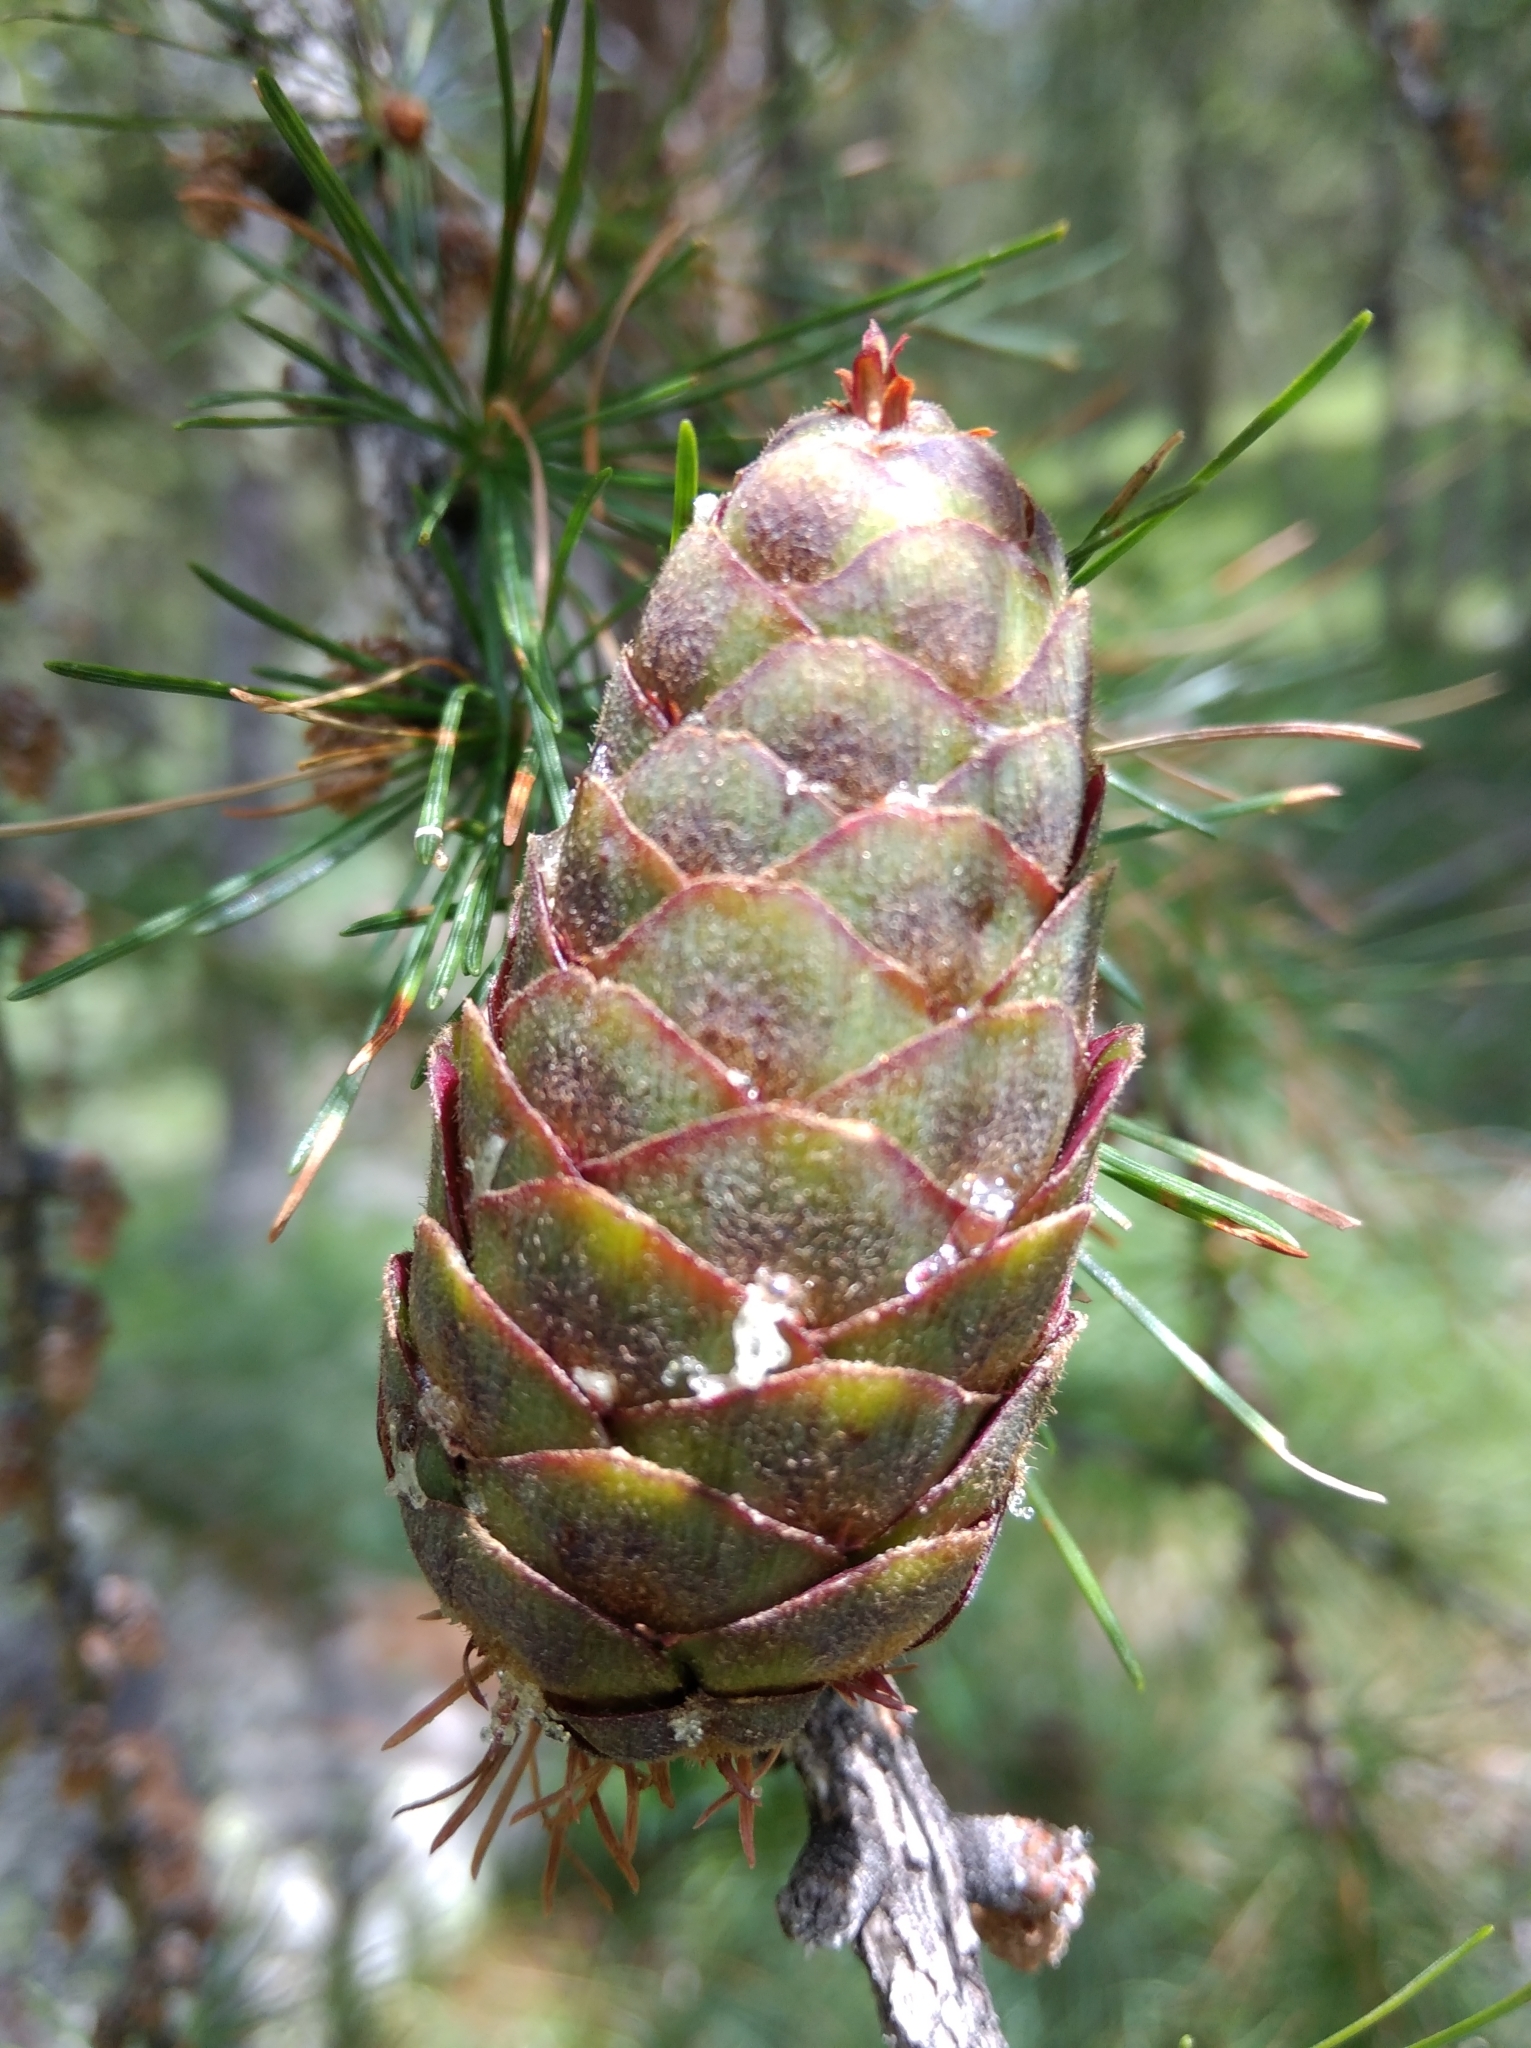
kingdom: Plantae
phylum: Tracheophyta
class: Pinopsida
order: Pinales
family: Pinaceae
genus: Larix
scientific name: Larix decidua
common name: European larch
